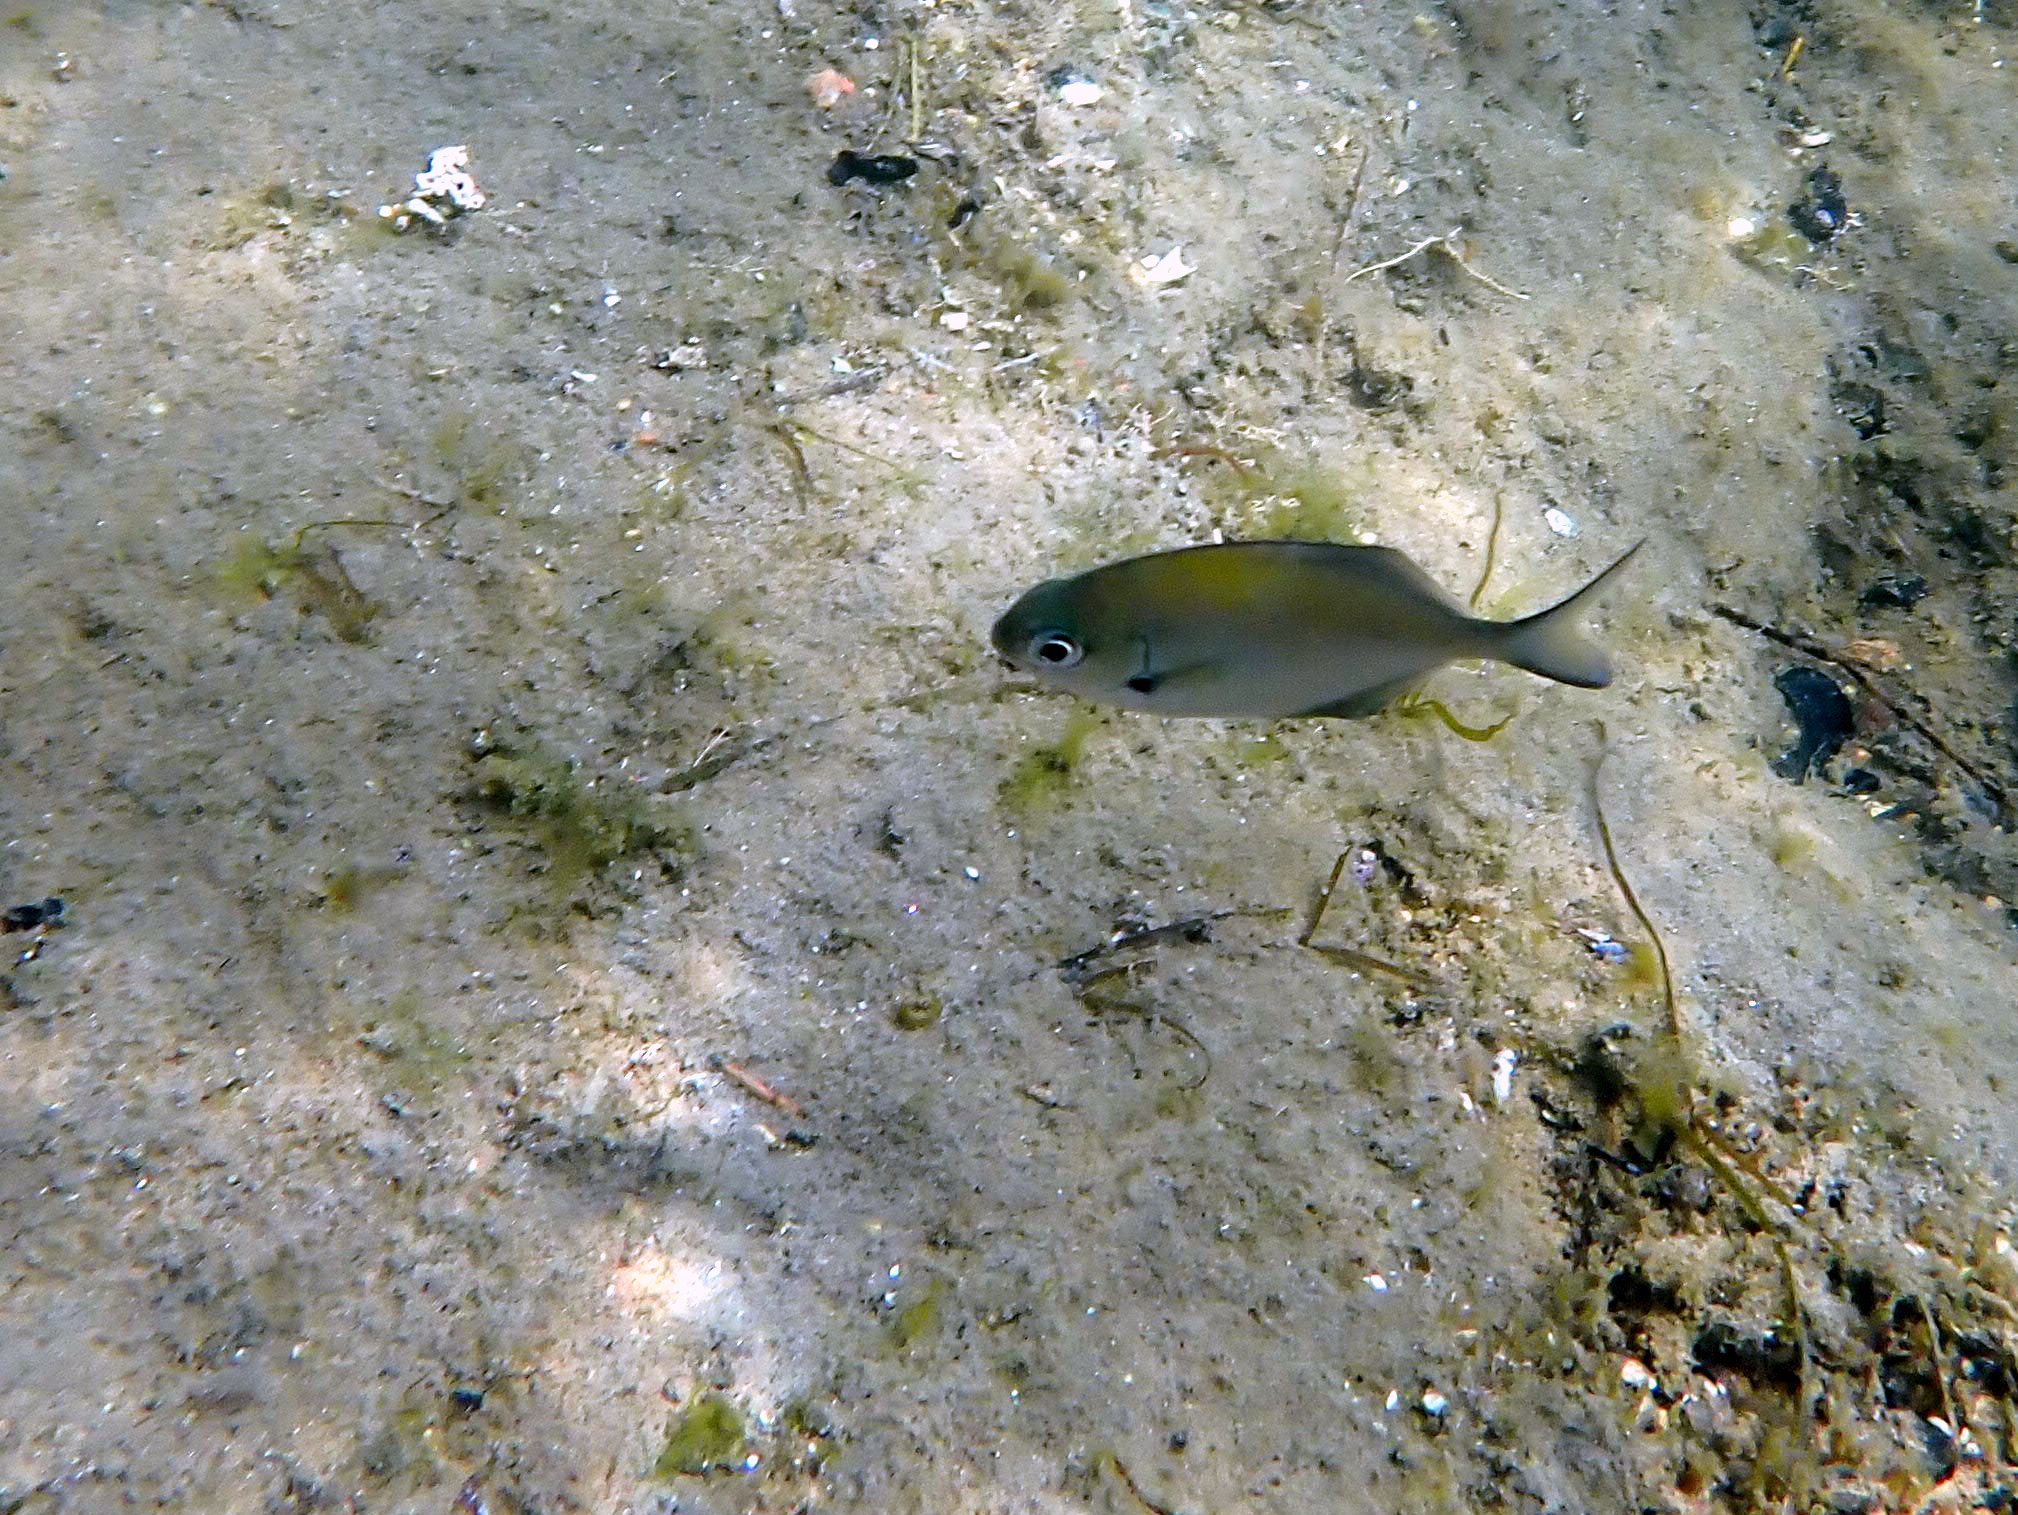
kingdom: Animalia
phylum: Chordata
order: Perciformes
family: Kyphosidae
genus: Scorpis
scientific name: Scorpis lineolata
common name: Sweep
